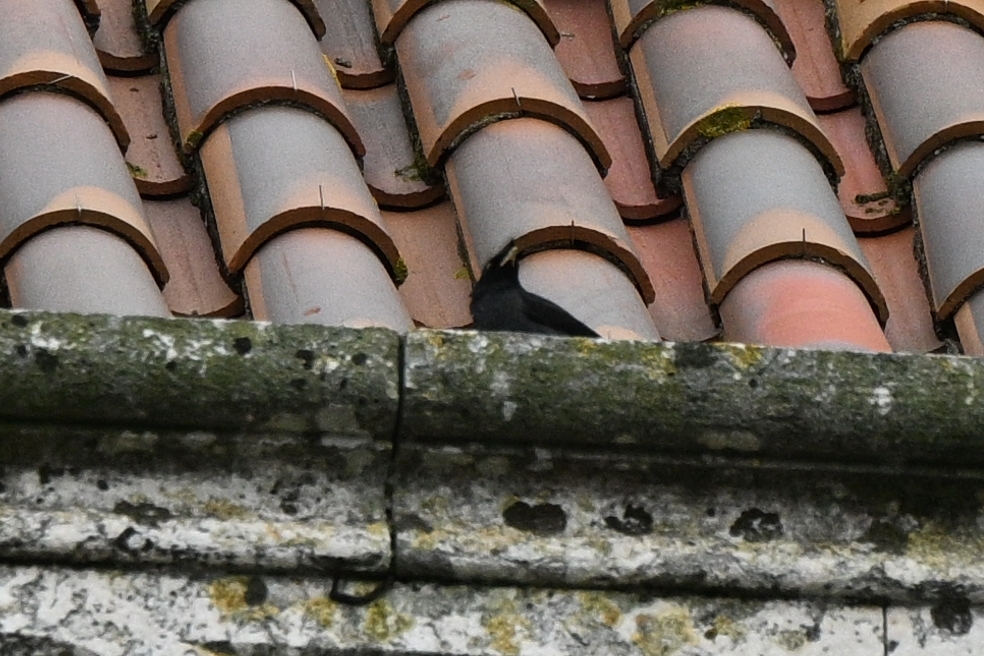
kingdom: Animalia
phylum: Chordata
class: Aves
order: Passeriformes
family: Sturnidae
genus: Acridotheres
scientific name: Acridotheres cristatellus
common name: Crested myna
